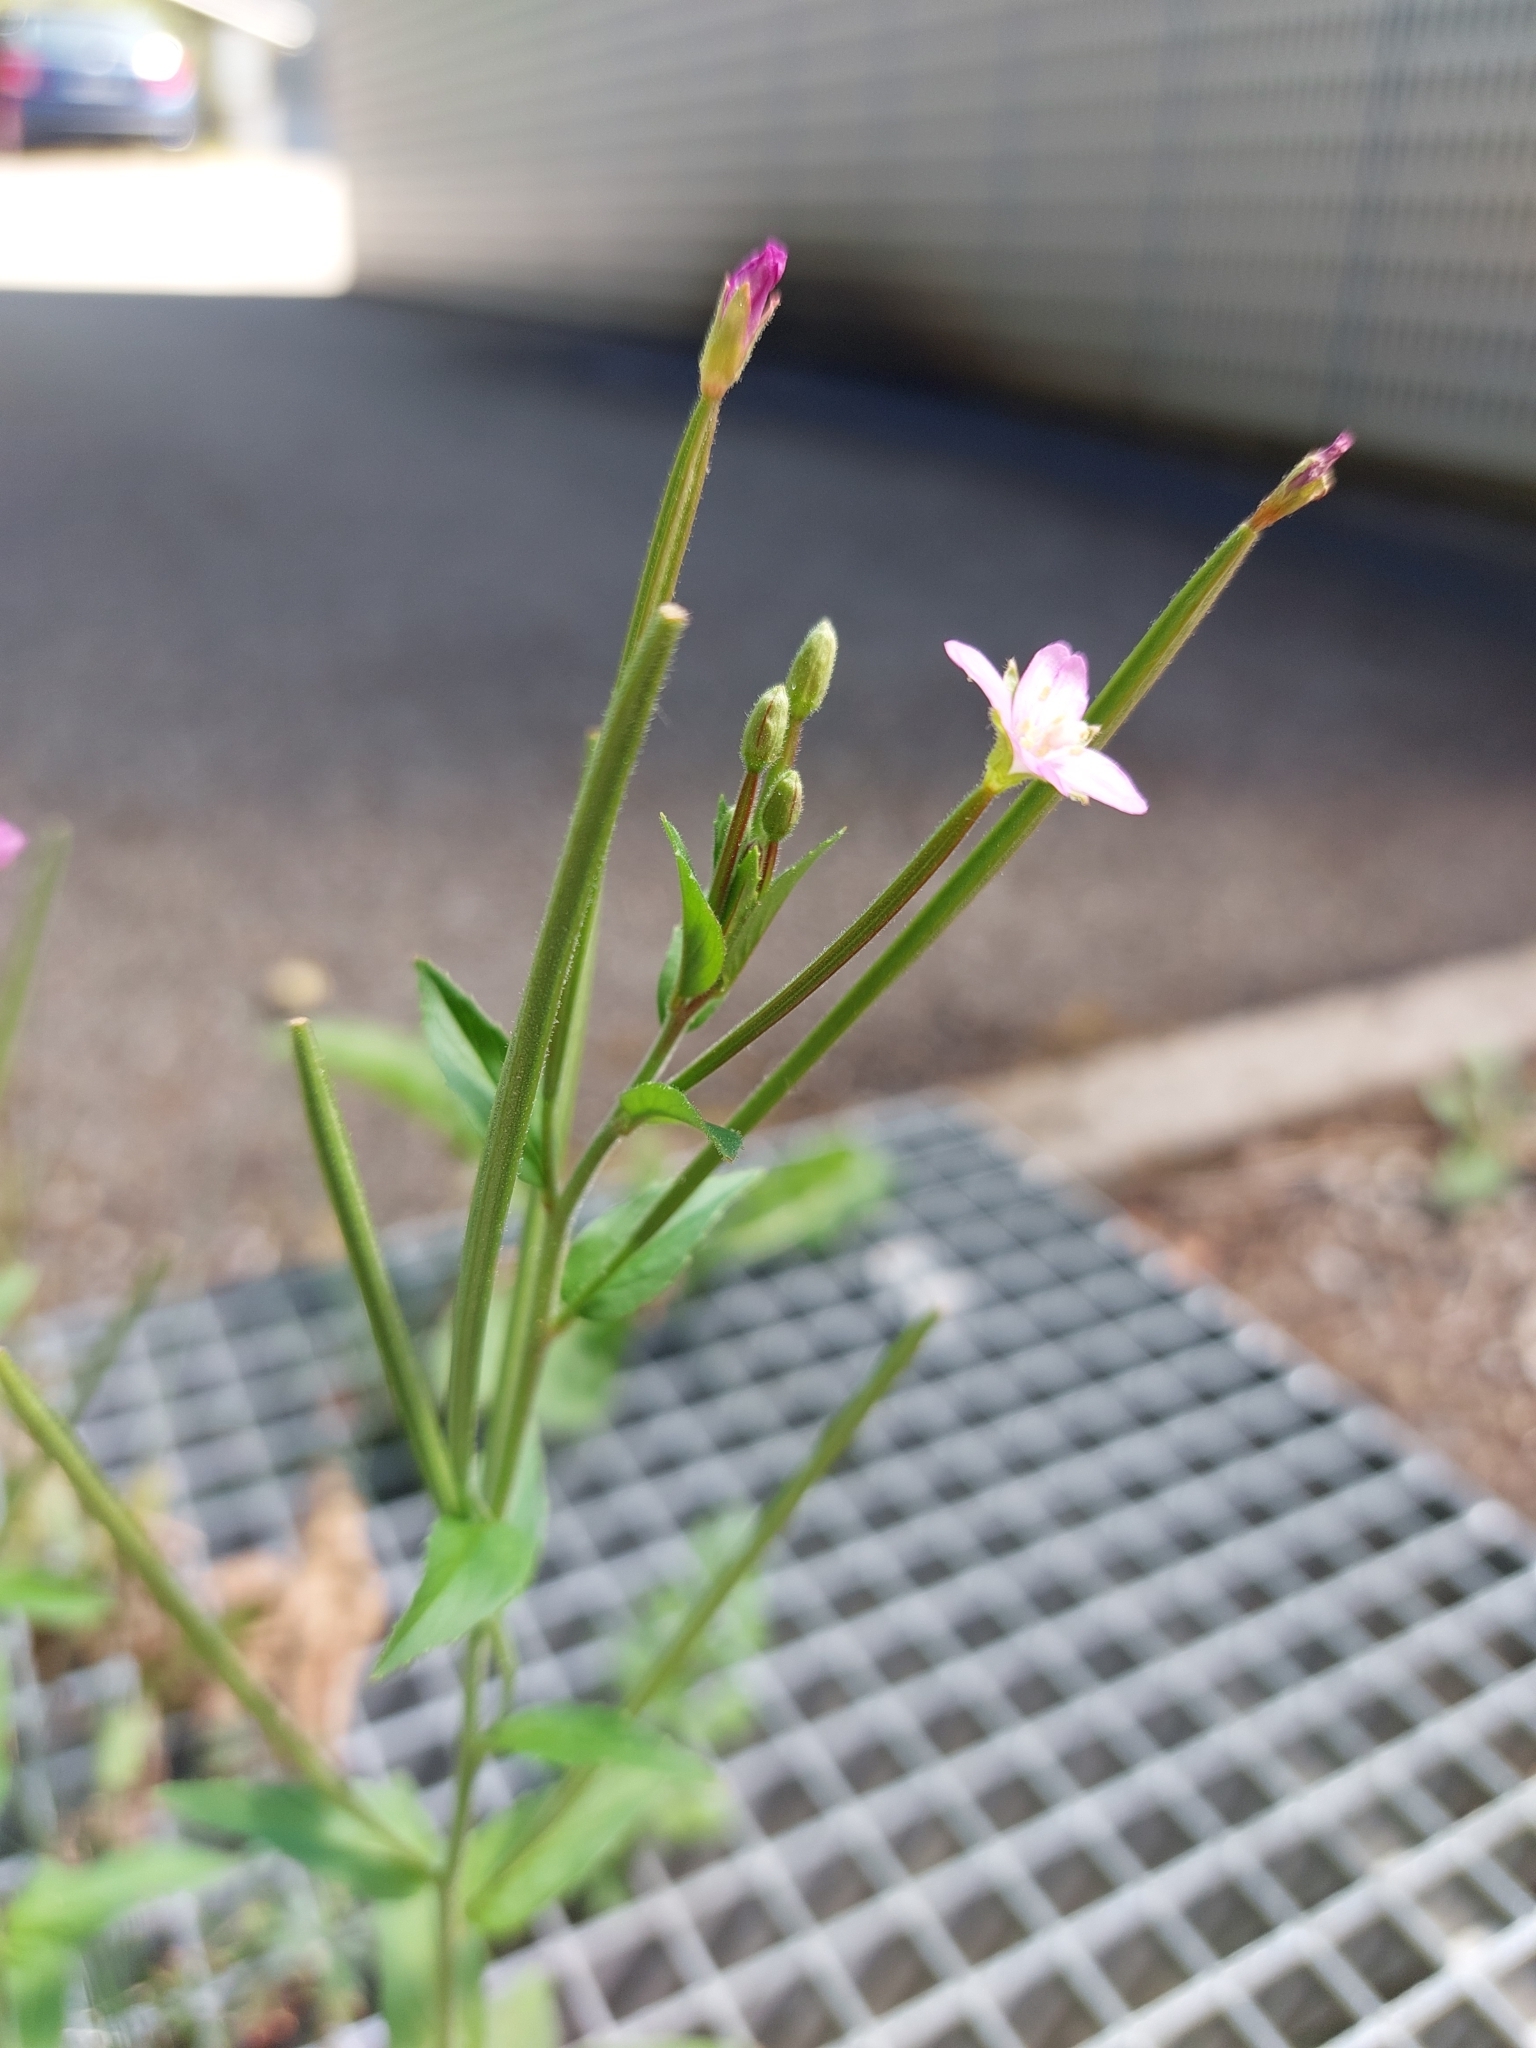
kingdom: Plantae
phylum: Tracheophyta
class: Magnoliopsida
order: Myrtales
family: Onagraceae
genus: Epilobium
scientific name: Epilobium parviflorum
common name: Hoary willowherb
